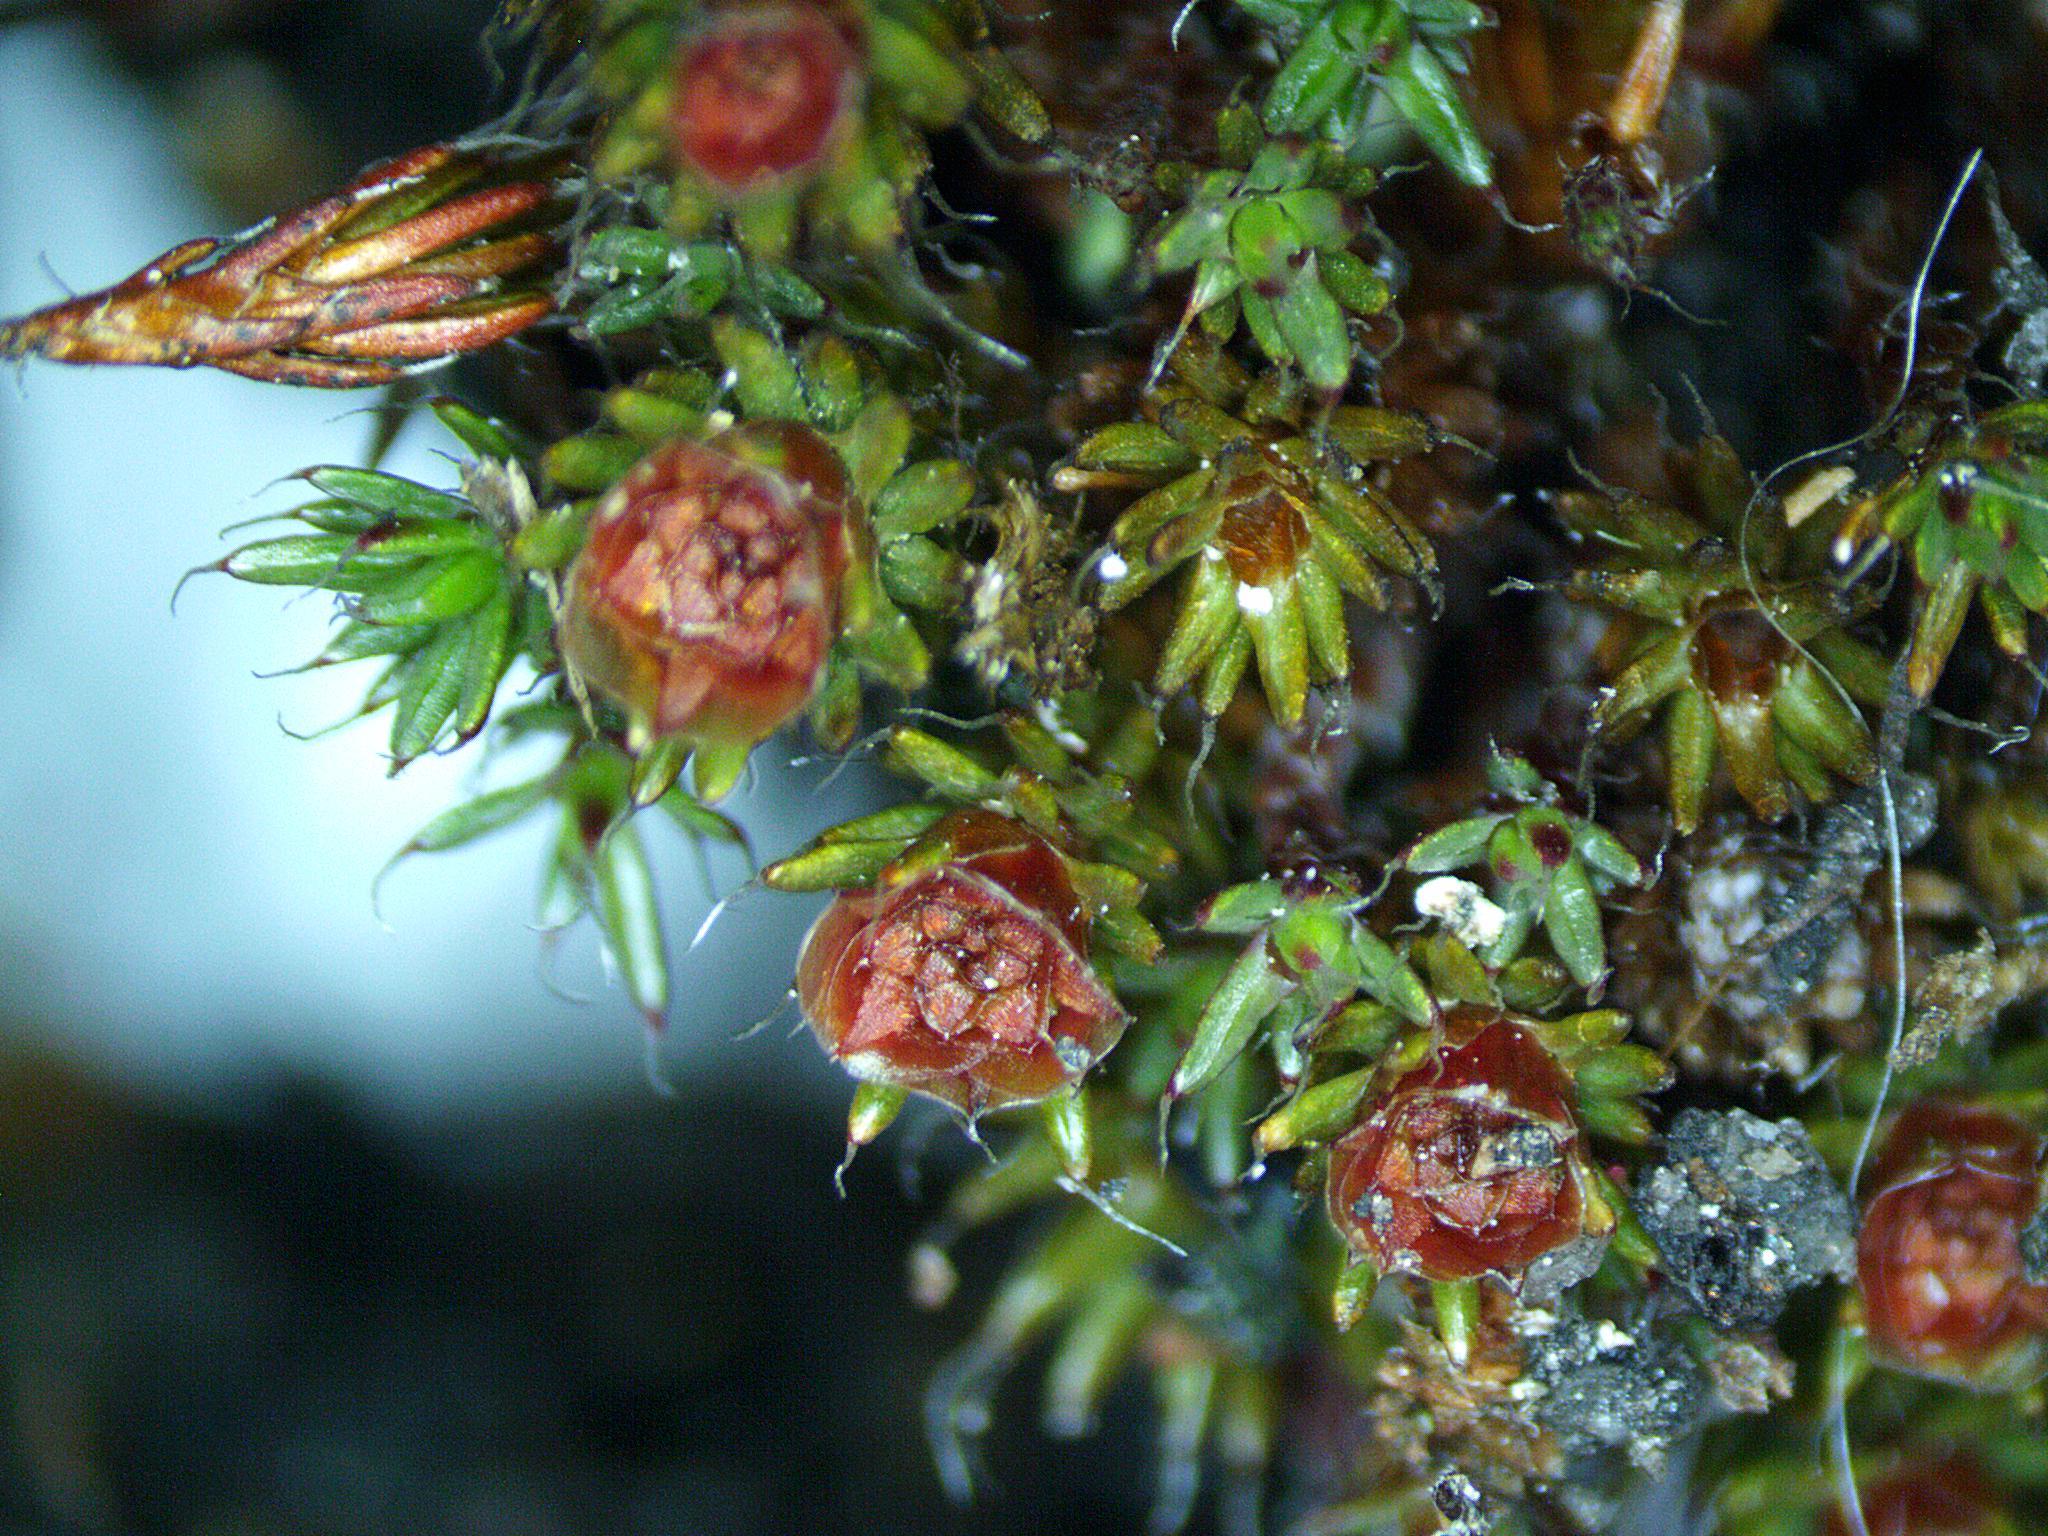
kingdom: Plantae
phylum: Bryophyta
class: Polytrichopsida
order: Polytrichales
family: Polytrichaceae
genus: Polytrichum
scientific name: Polytrichum piliferum
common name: Bristly haircap
